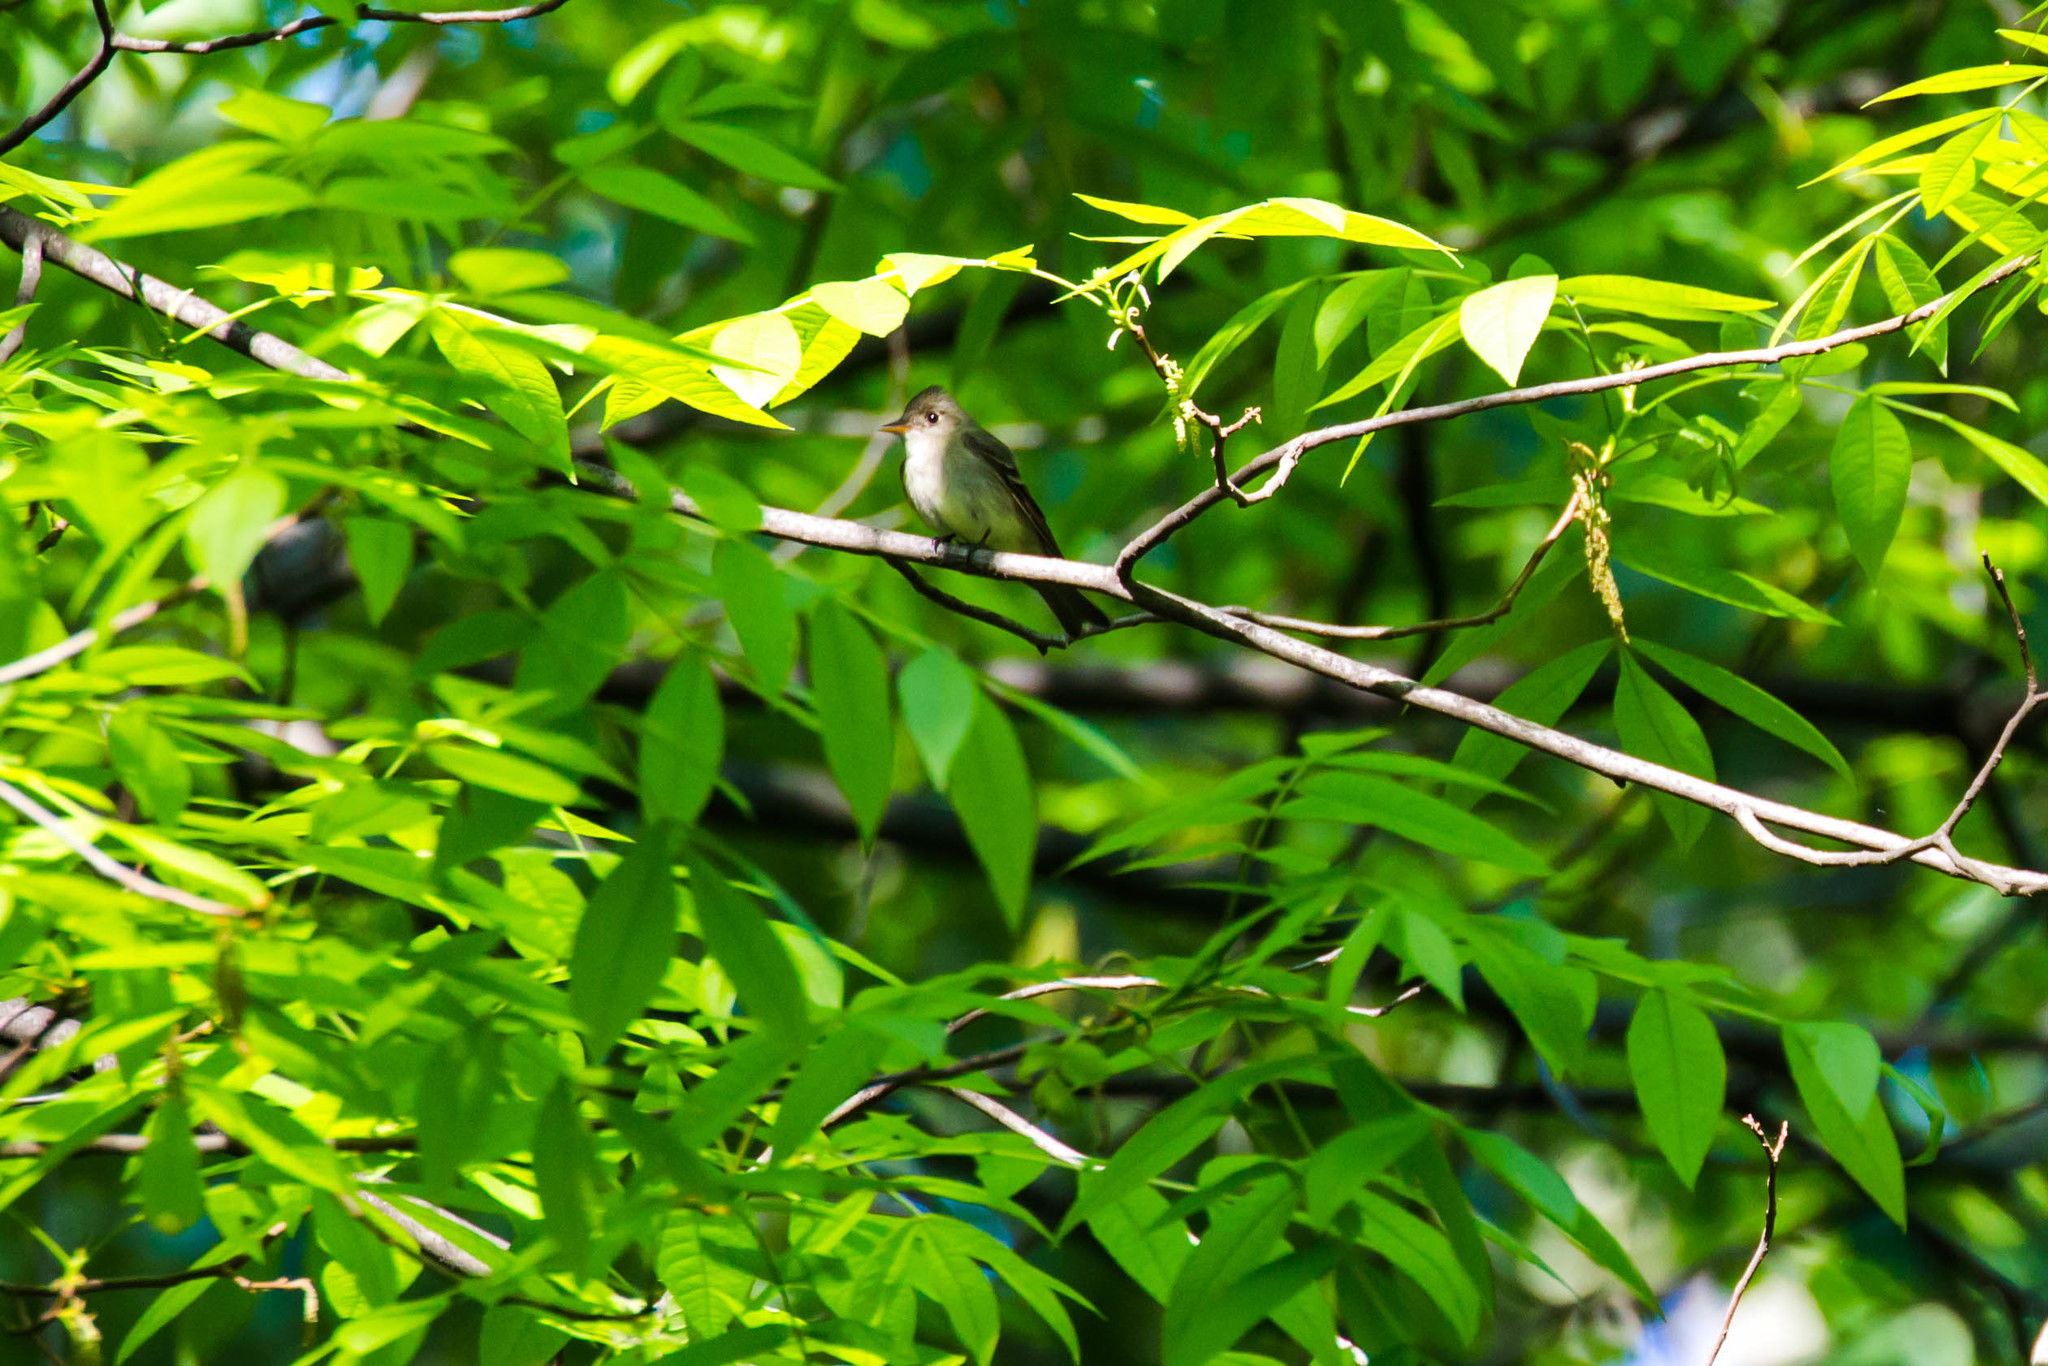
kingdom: Animalia
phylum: Chordata
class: Aves
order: Passeriformes
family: Tyrannidae
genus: Contopus
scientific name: Contopus virens
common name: Eastern wood-pewee
